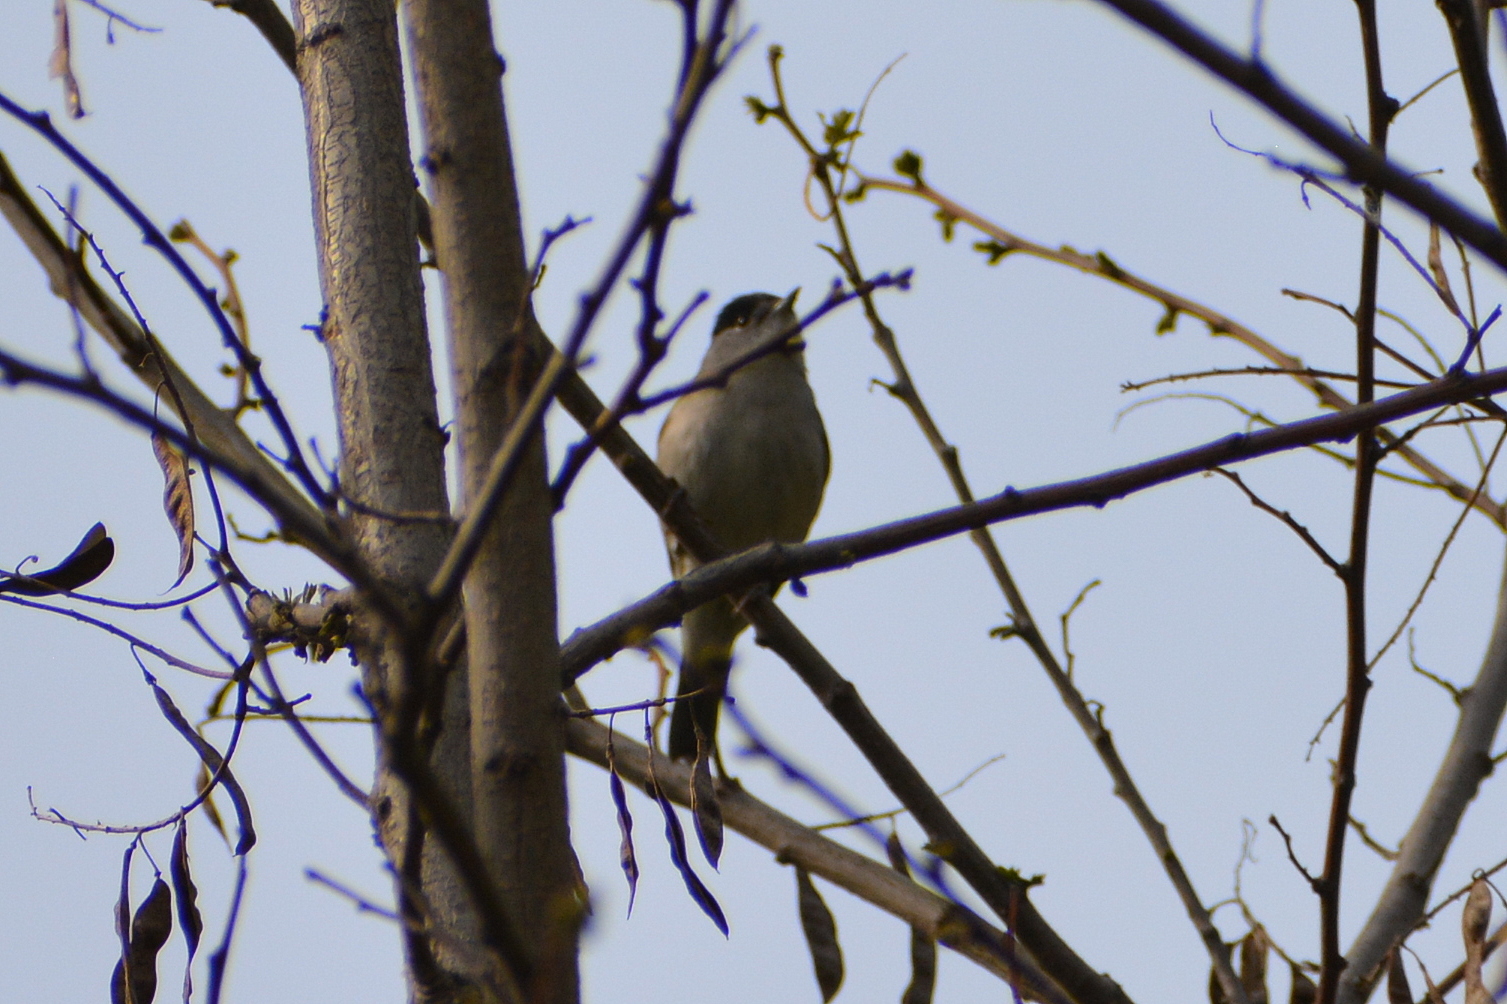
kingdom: Animalia
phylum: Chordata
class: Aves
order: Passeriformes
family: Sylviidae
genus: Sylvia
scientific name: Sylvia atricapilla
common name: Eurasian blackcap
